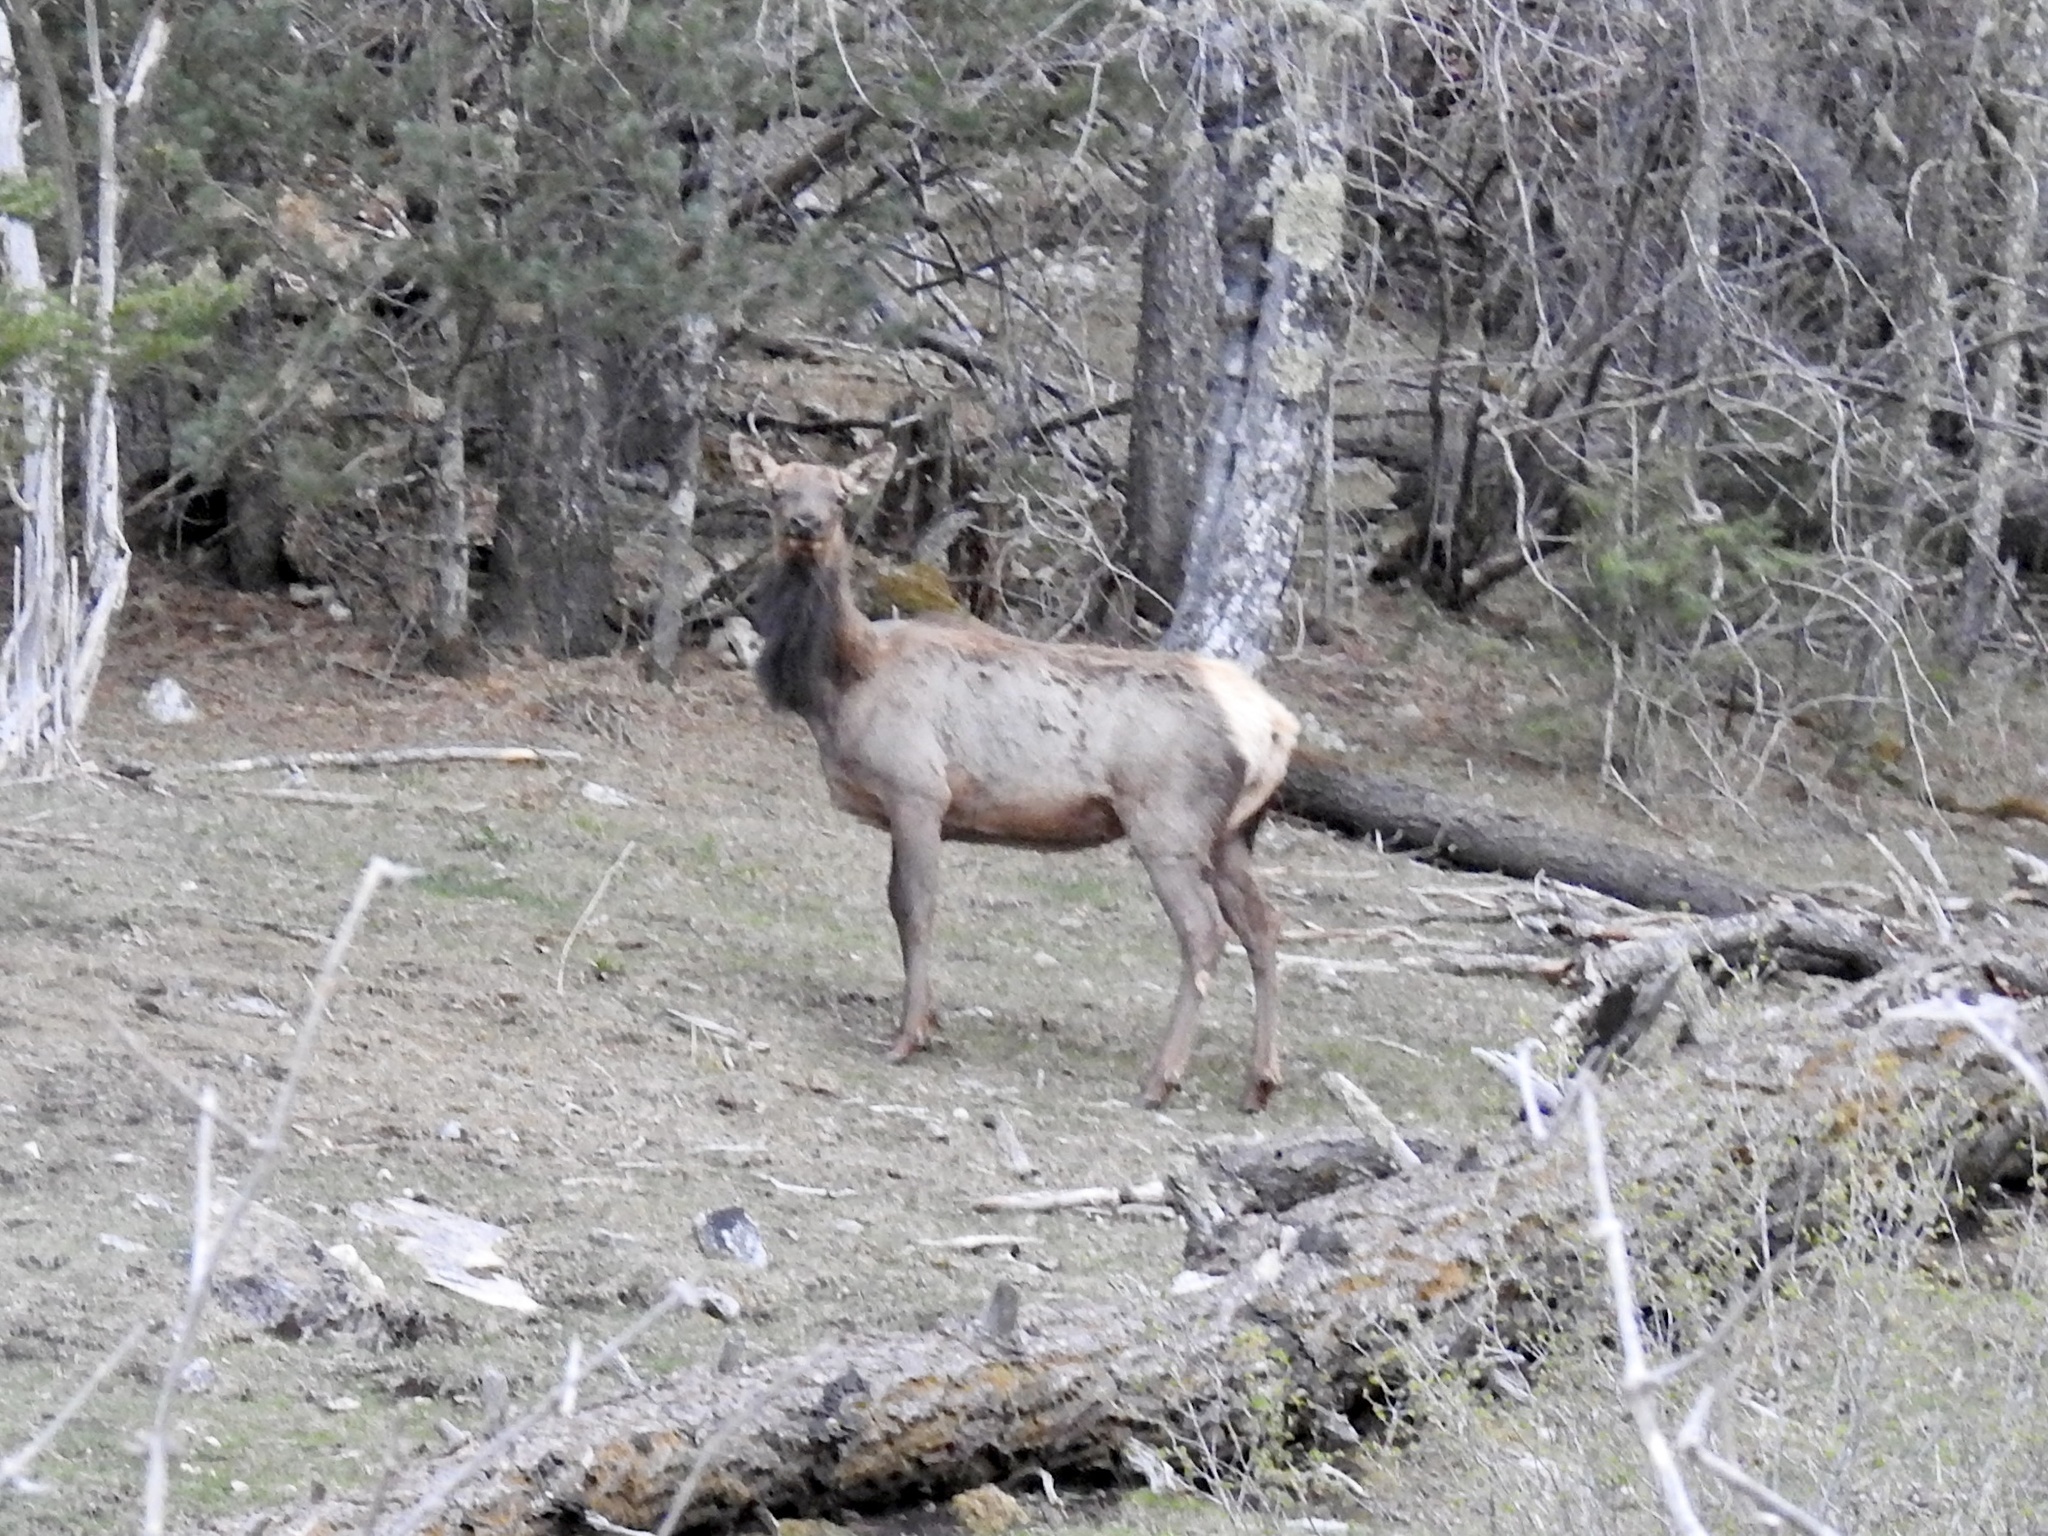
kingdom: Animalia
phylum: Chordata
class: Mammalia
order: Artiodactyla
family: Cervidae
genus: Cervus
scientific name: Cervus elaphus
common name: Red deer
